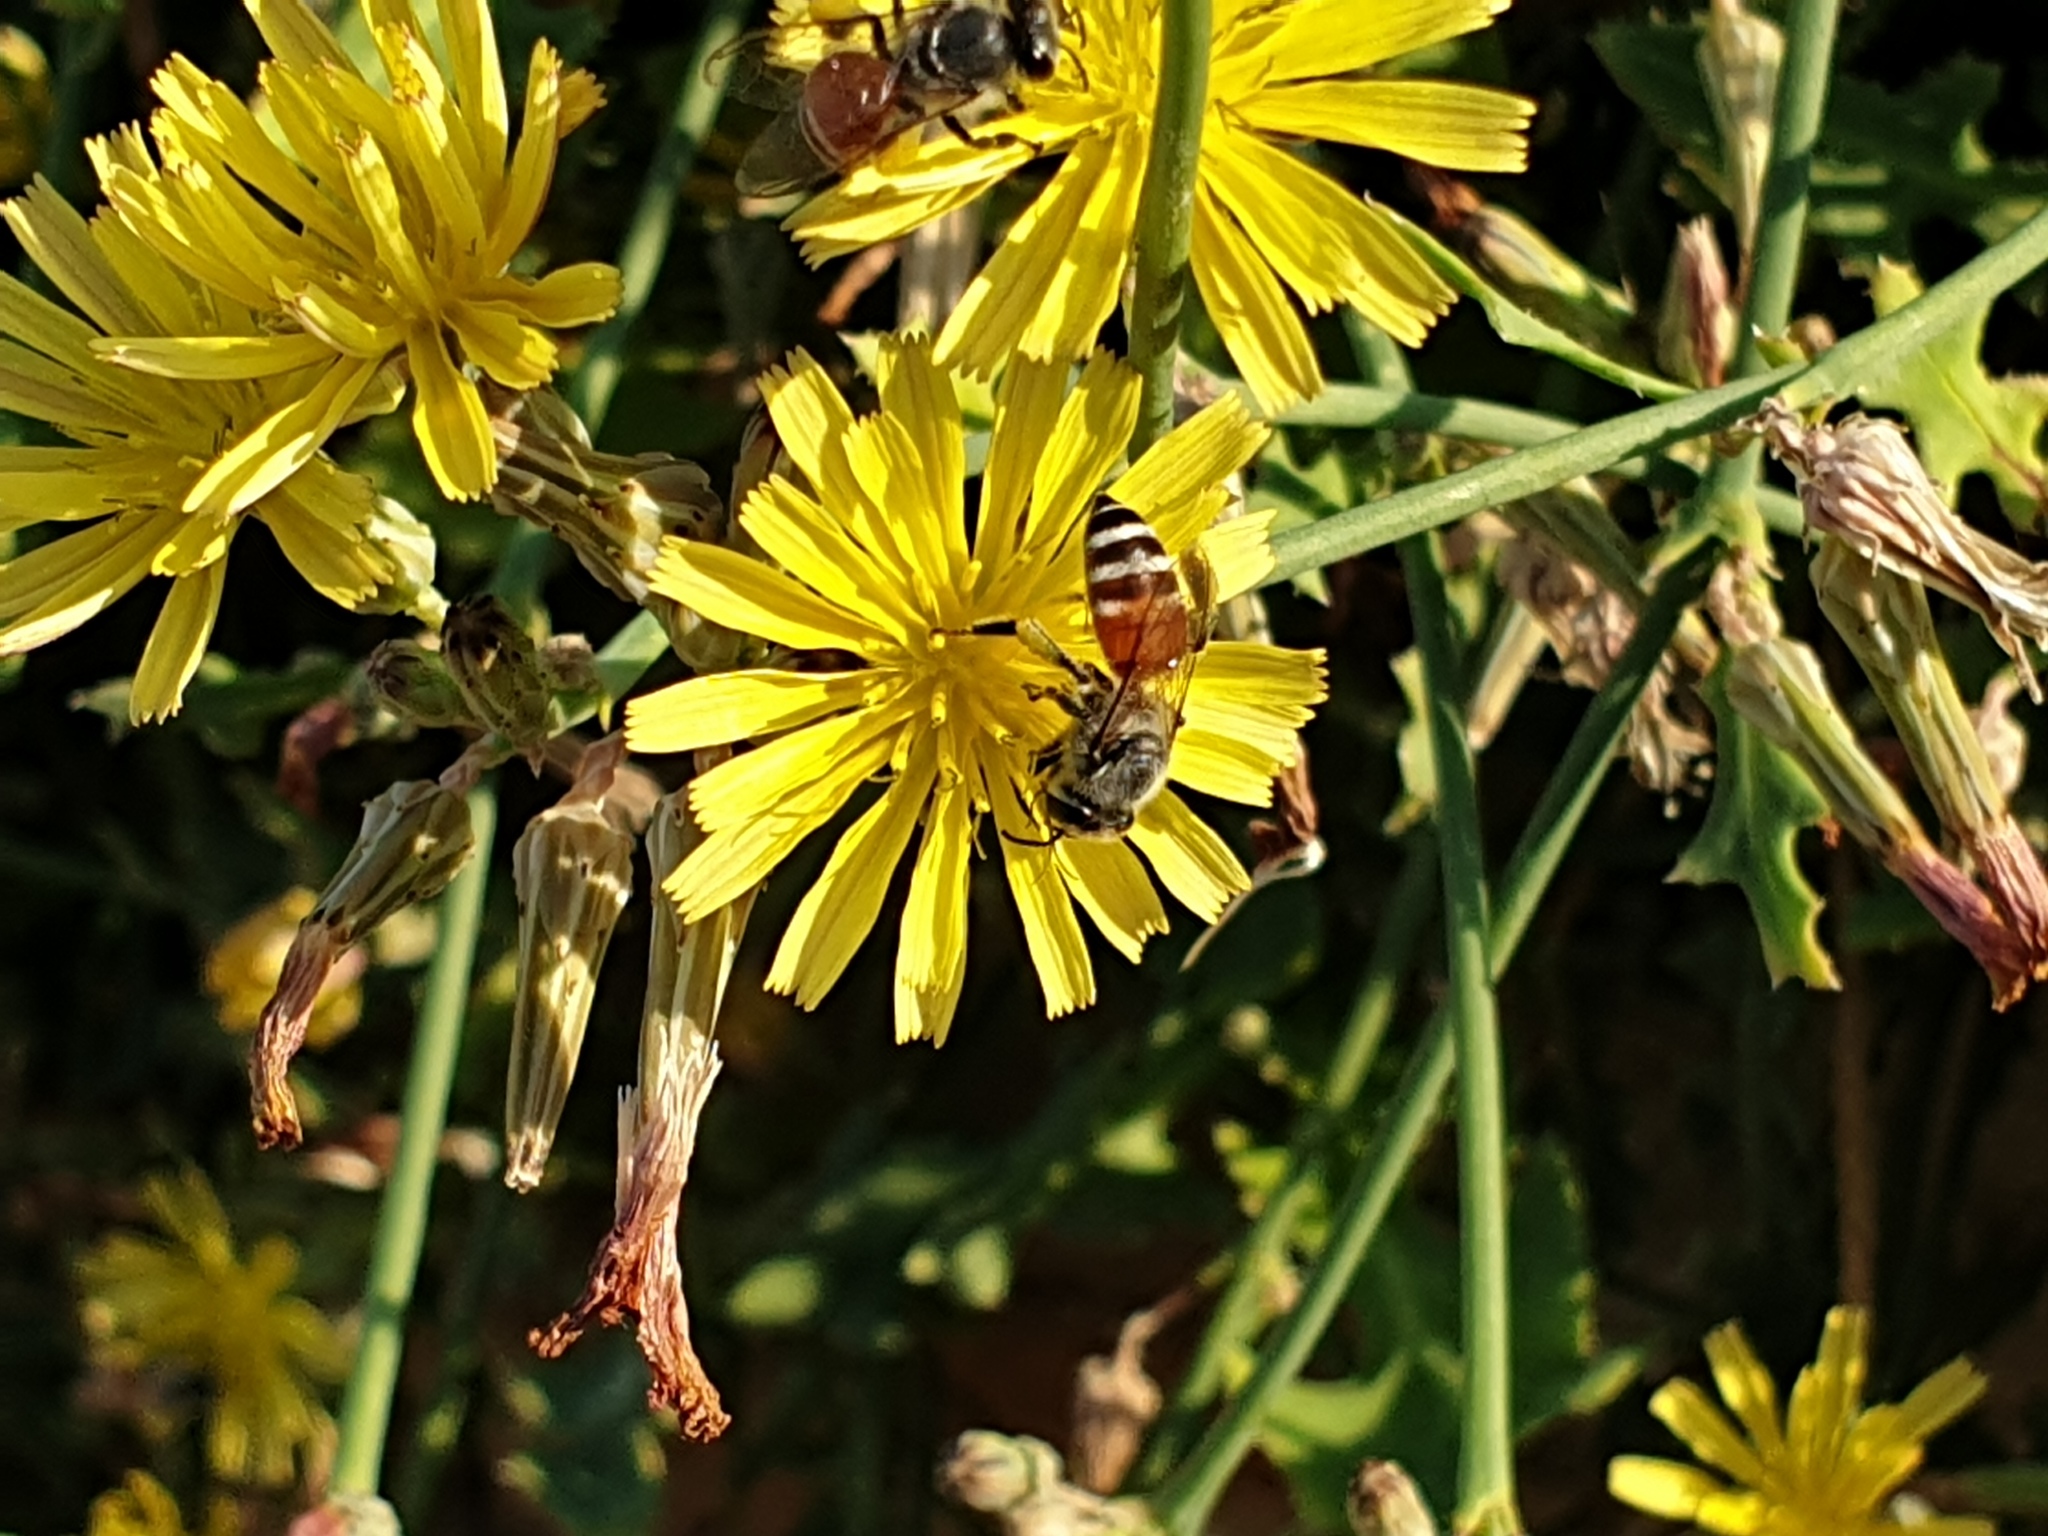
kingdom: Animalia
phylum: Arthropoda
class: Insecta
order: Hymenoptera
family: Apidae
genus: Apis
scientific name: Apis florea
